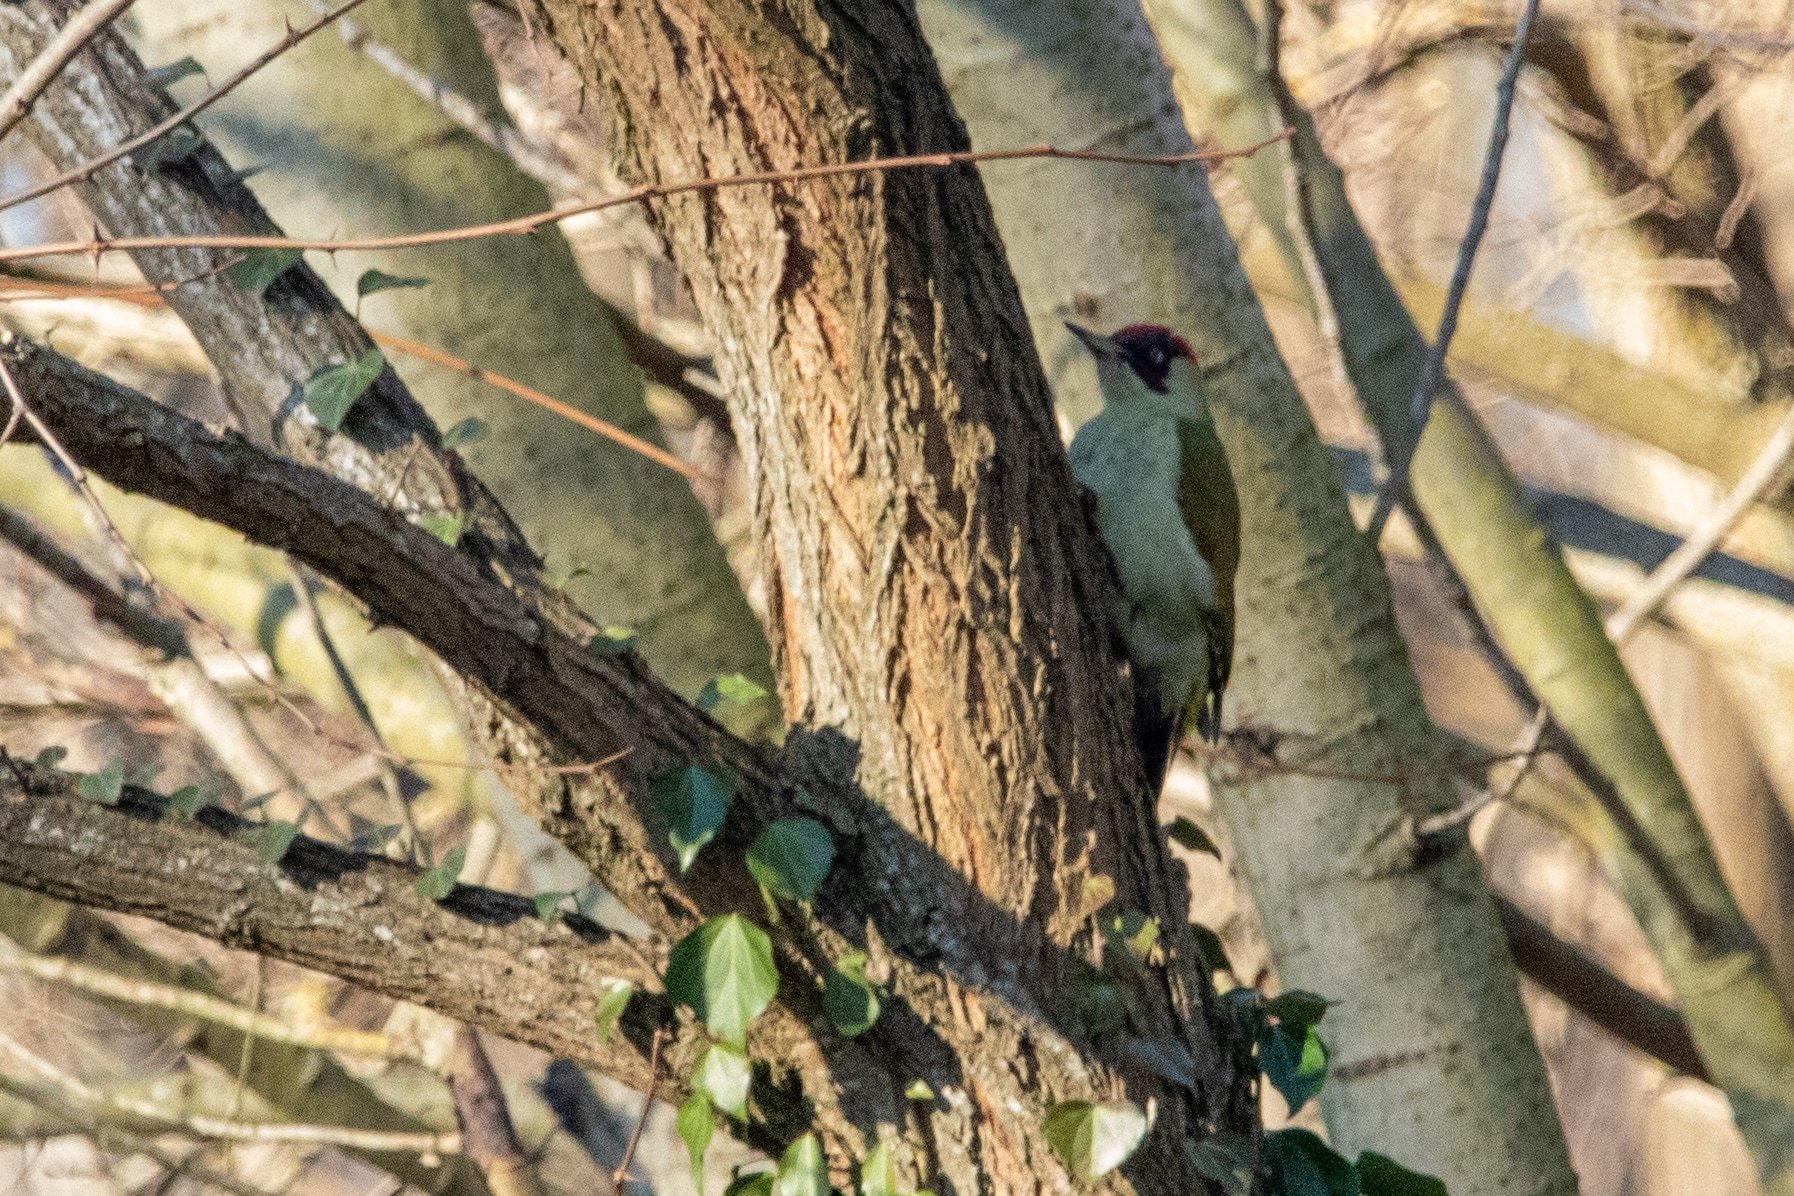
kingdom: Animalia
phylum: Chordata
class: Aves
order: Piciformes
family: Picidae
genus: Picus
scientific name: Picus viridis
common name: European green woodpecker
